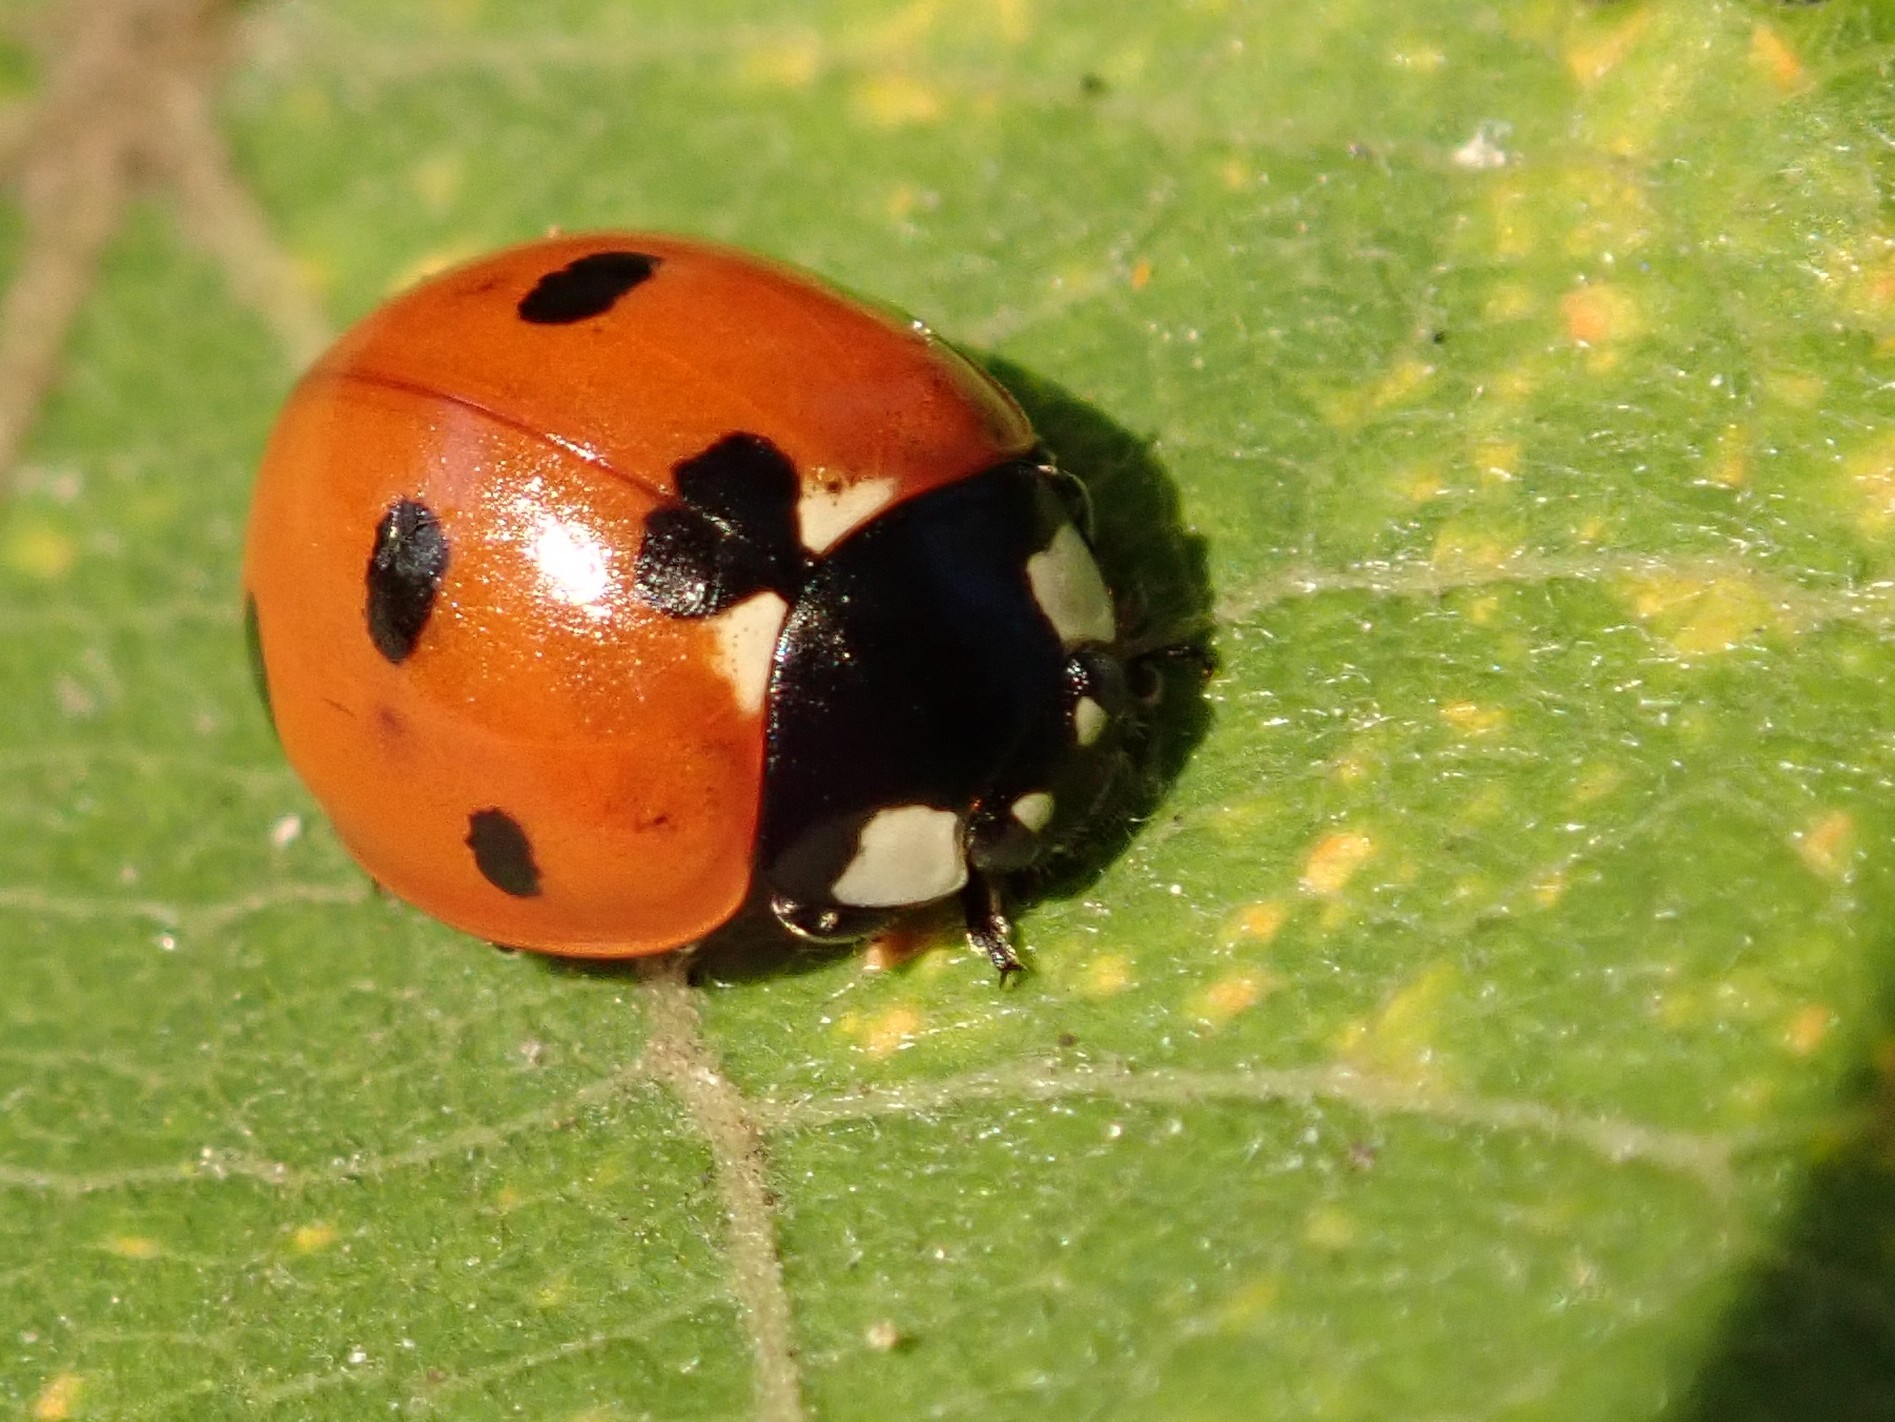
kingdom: Animalia
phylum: Arthropoda
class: Insecta
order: Coleoptera
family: Coccinellidae
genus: Coccinella
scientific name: Coccinella septempunctata
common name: Sevenspotted lady beetle
